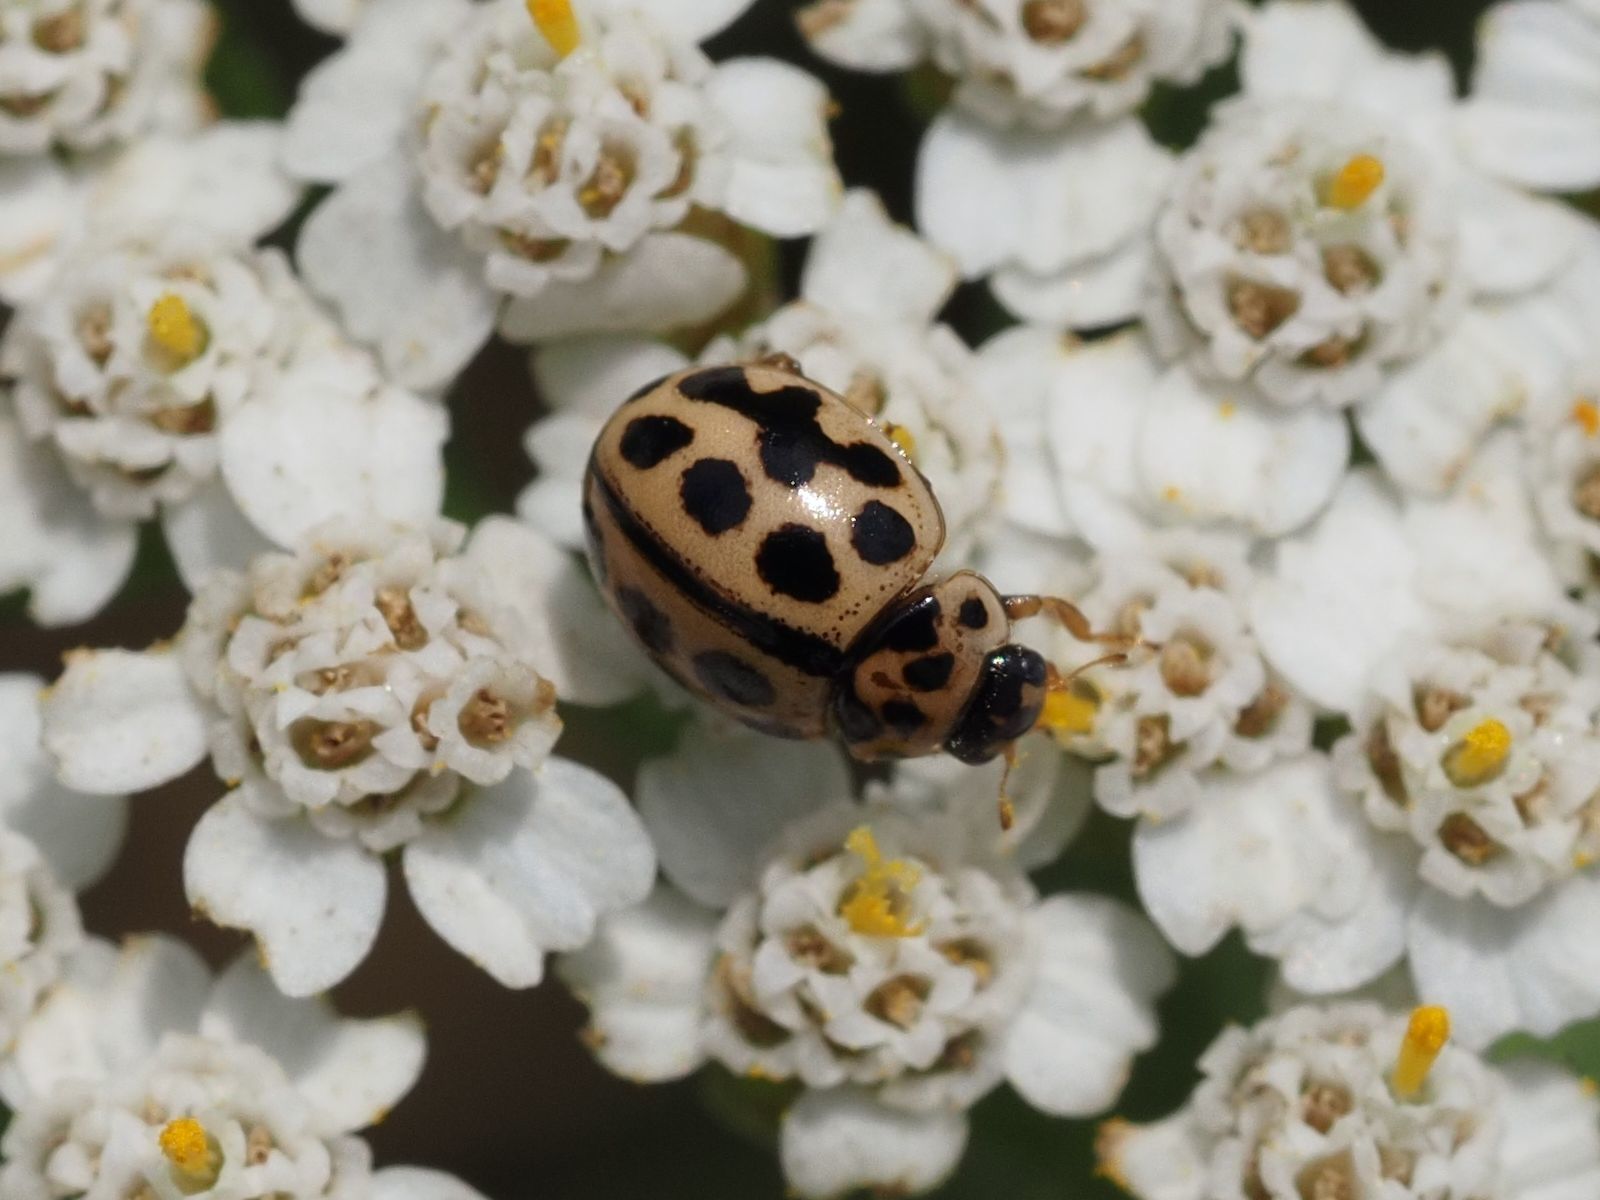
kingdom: Animalia
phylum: Arthropoda
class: Insecta
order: Coleoptera
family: Coccinellidae
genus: Tytthaspis
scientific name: Tytthaspis sedecimpunctata
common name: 16-spot ladybird
